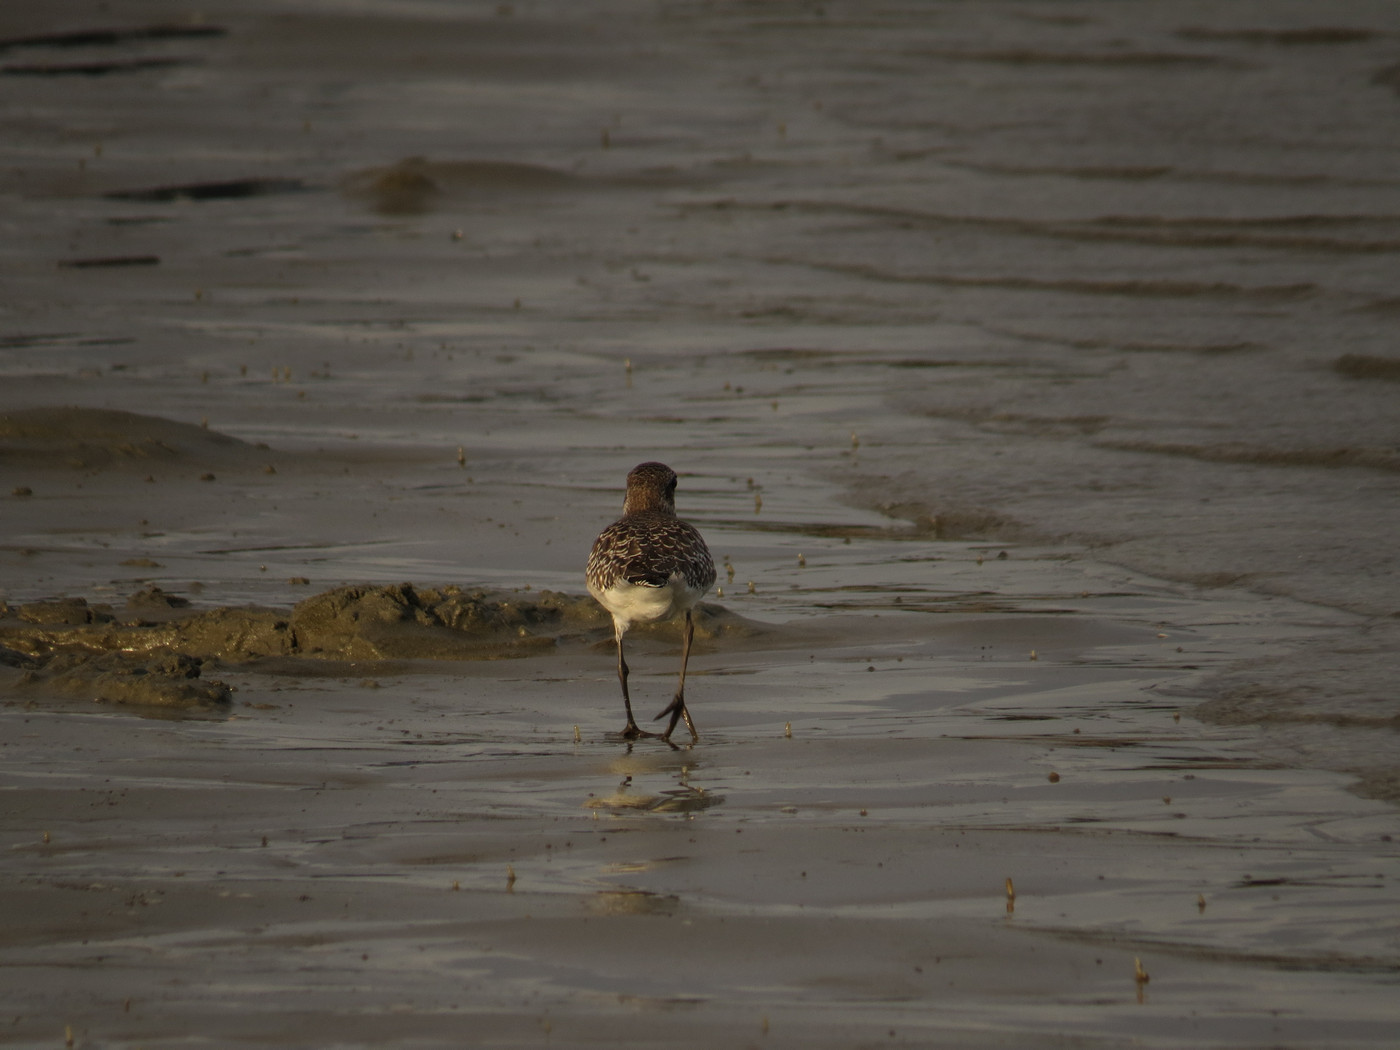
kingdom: Animalia
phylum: Chordata
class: Aves
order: Charadriiformes
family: Charadriidae
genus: Pluvialis
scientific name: Pluvialis squatarola
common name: Grey plover
